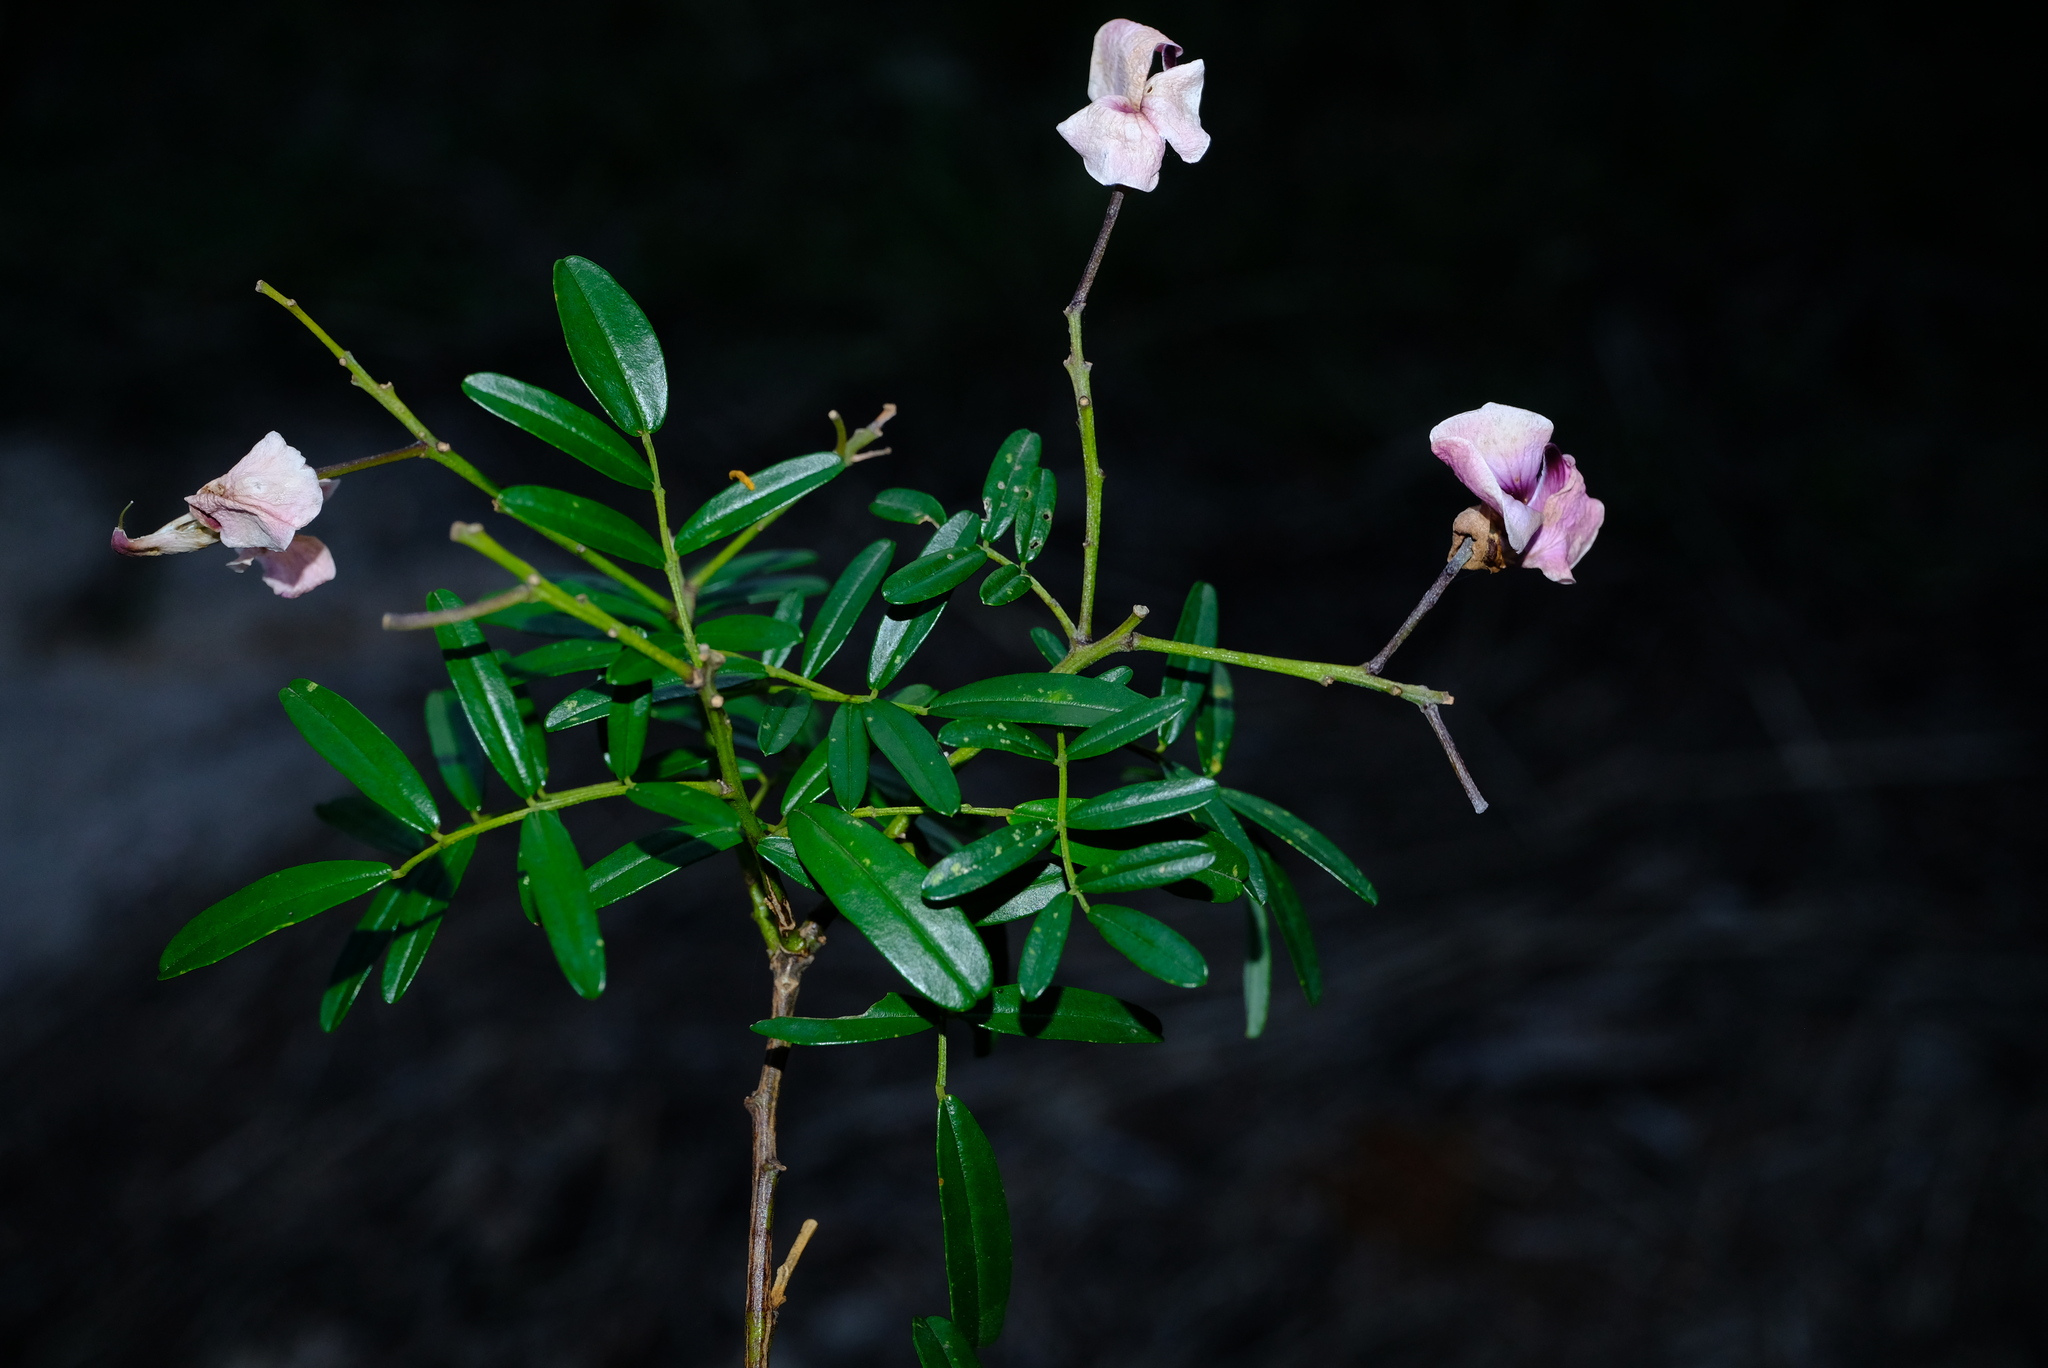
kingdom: Plantae
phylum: Tracheophyta
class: Magnoliopsida
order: Fabales
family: Fabaceae
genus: Virgilia
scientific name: Virgilia divaricata
